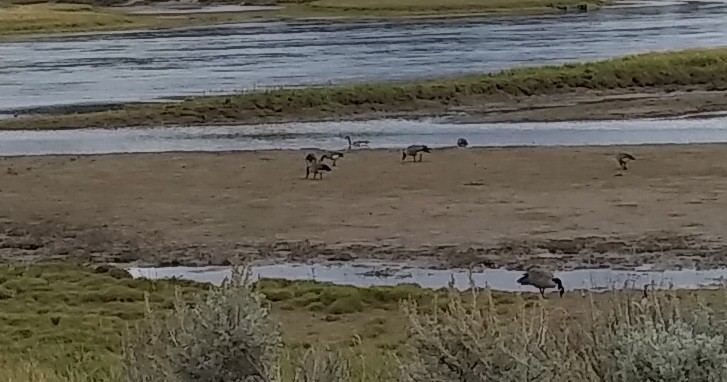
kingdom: Animalia
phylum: Chordata
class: Aves
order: Anseriformes
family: Anatidae
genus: Branta
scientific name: Branta canadensis
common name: Canada goose
